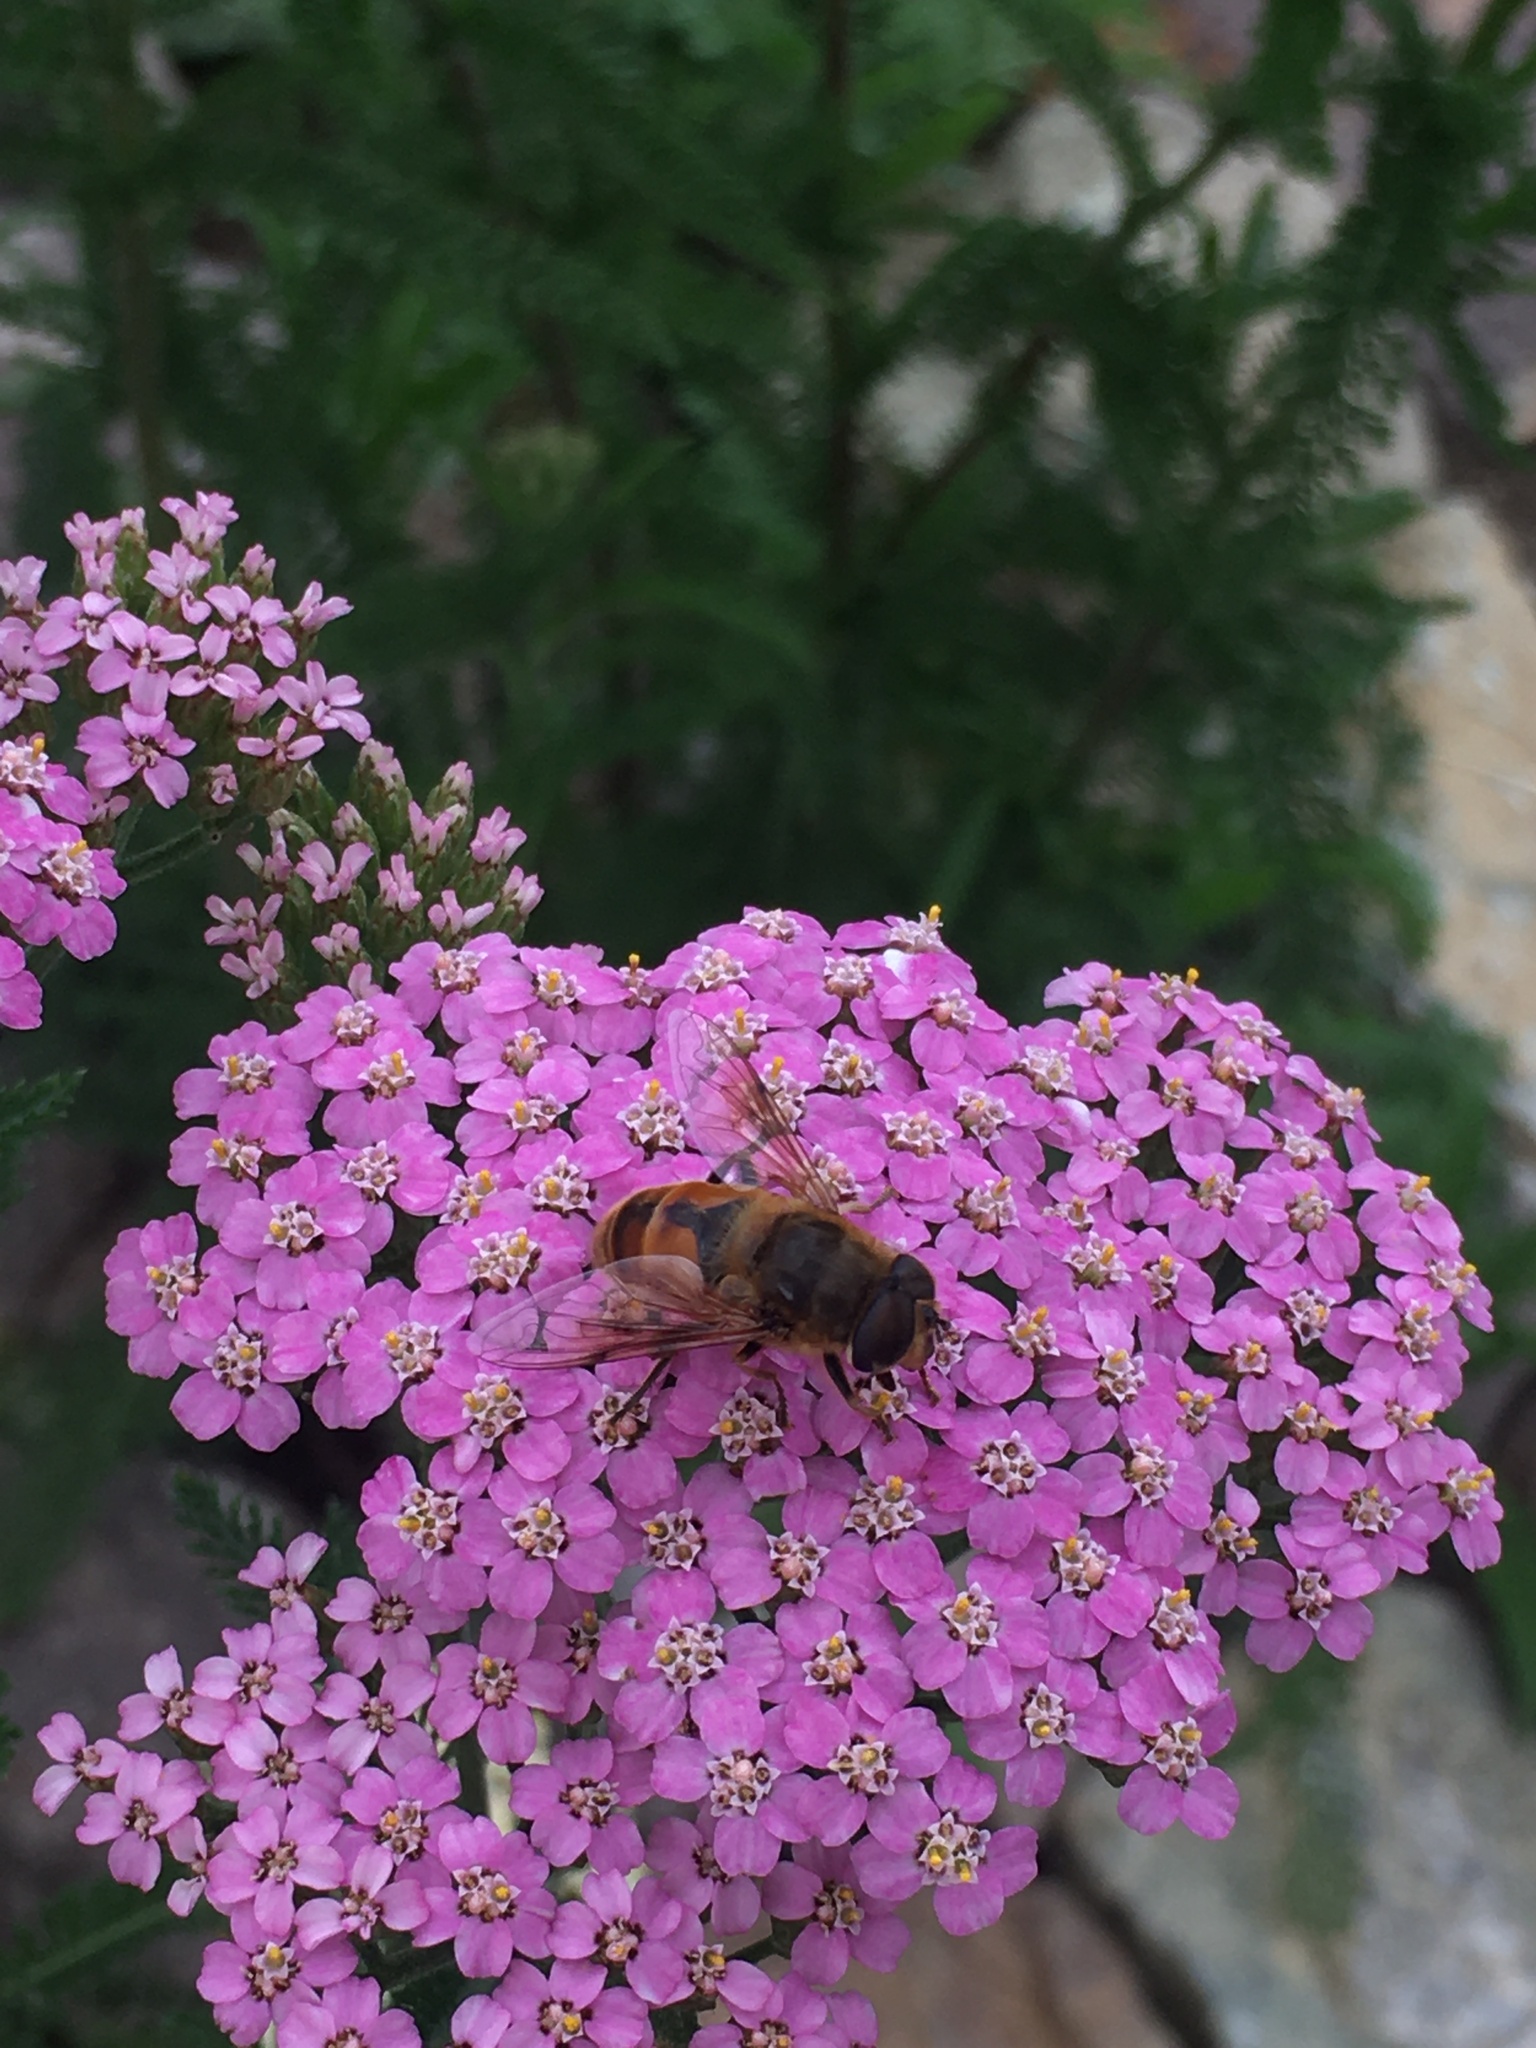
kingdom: Animalia
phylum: Arthropoda
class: Insecta
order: Diptera
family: Syrphidae
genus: Eristalis
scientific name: Eristalis tenax
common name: Drone fly
